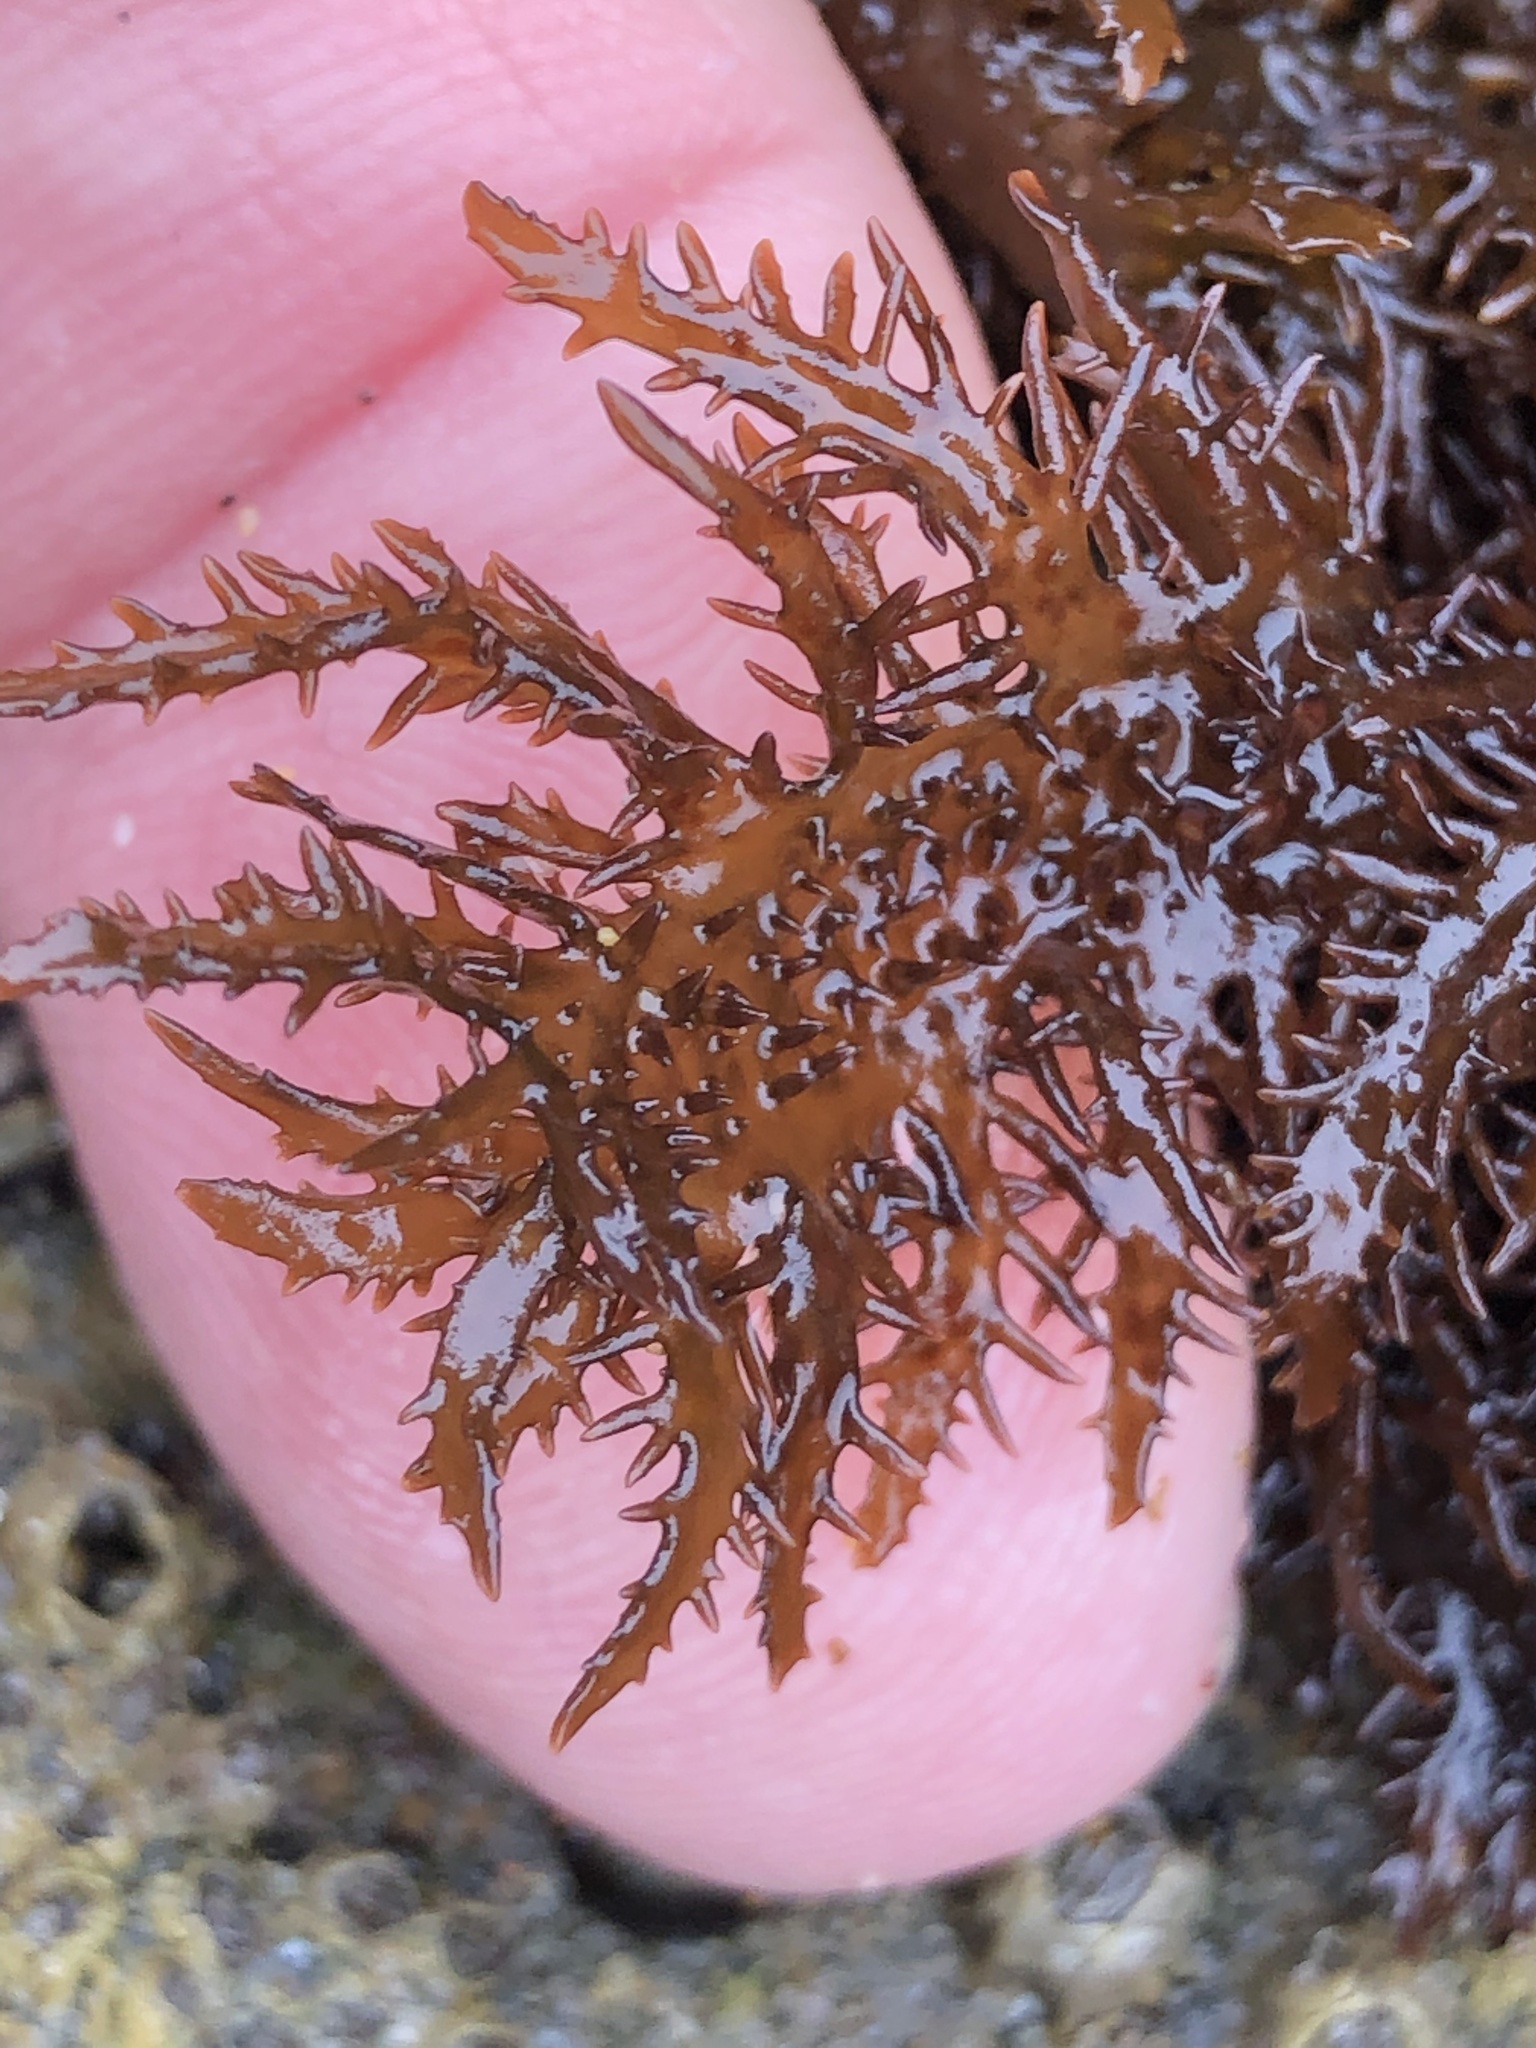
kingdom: Plantae
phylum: Rhodophyta
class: Florideophyceae
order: Gigartinales
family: Gigartinaceae
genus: Chondracanthus
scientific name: Chondracanthus canaliculatus
